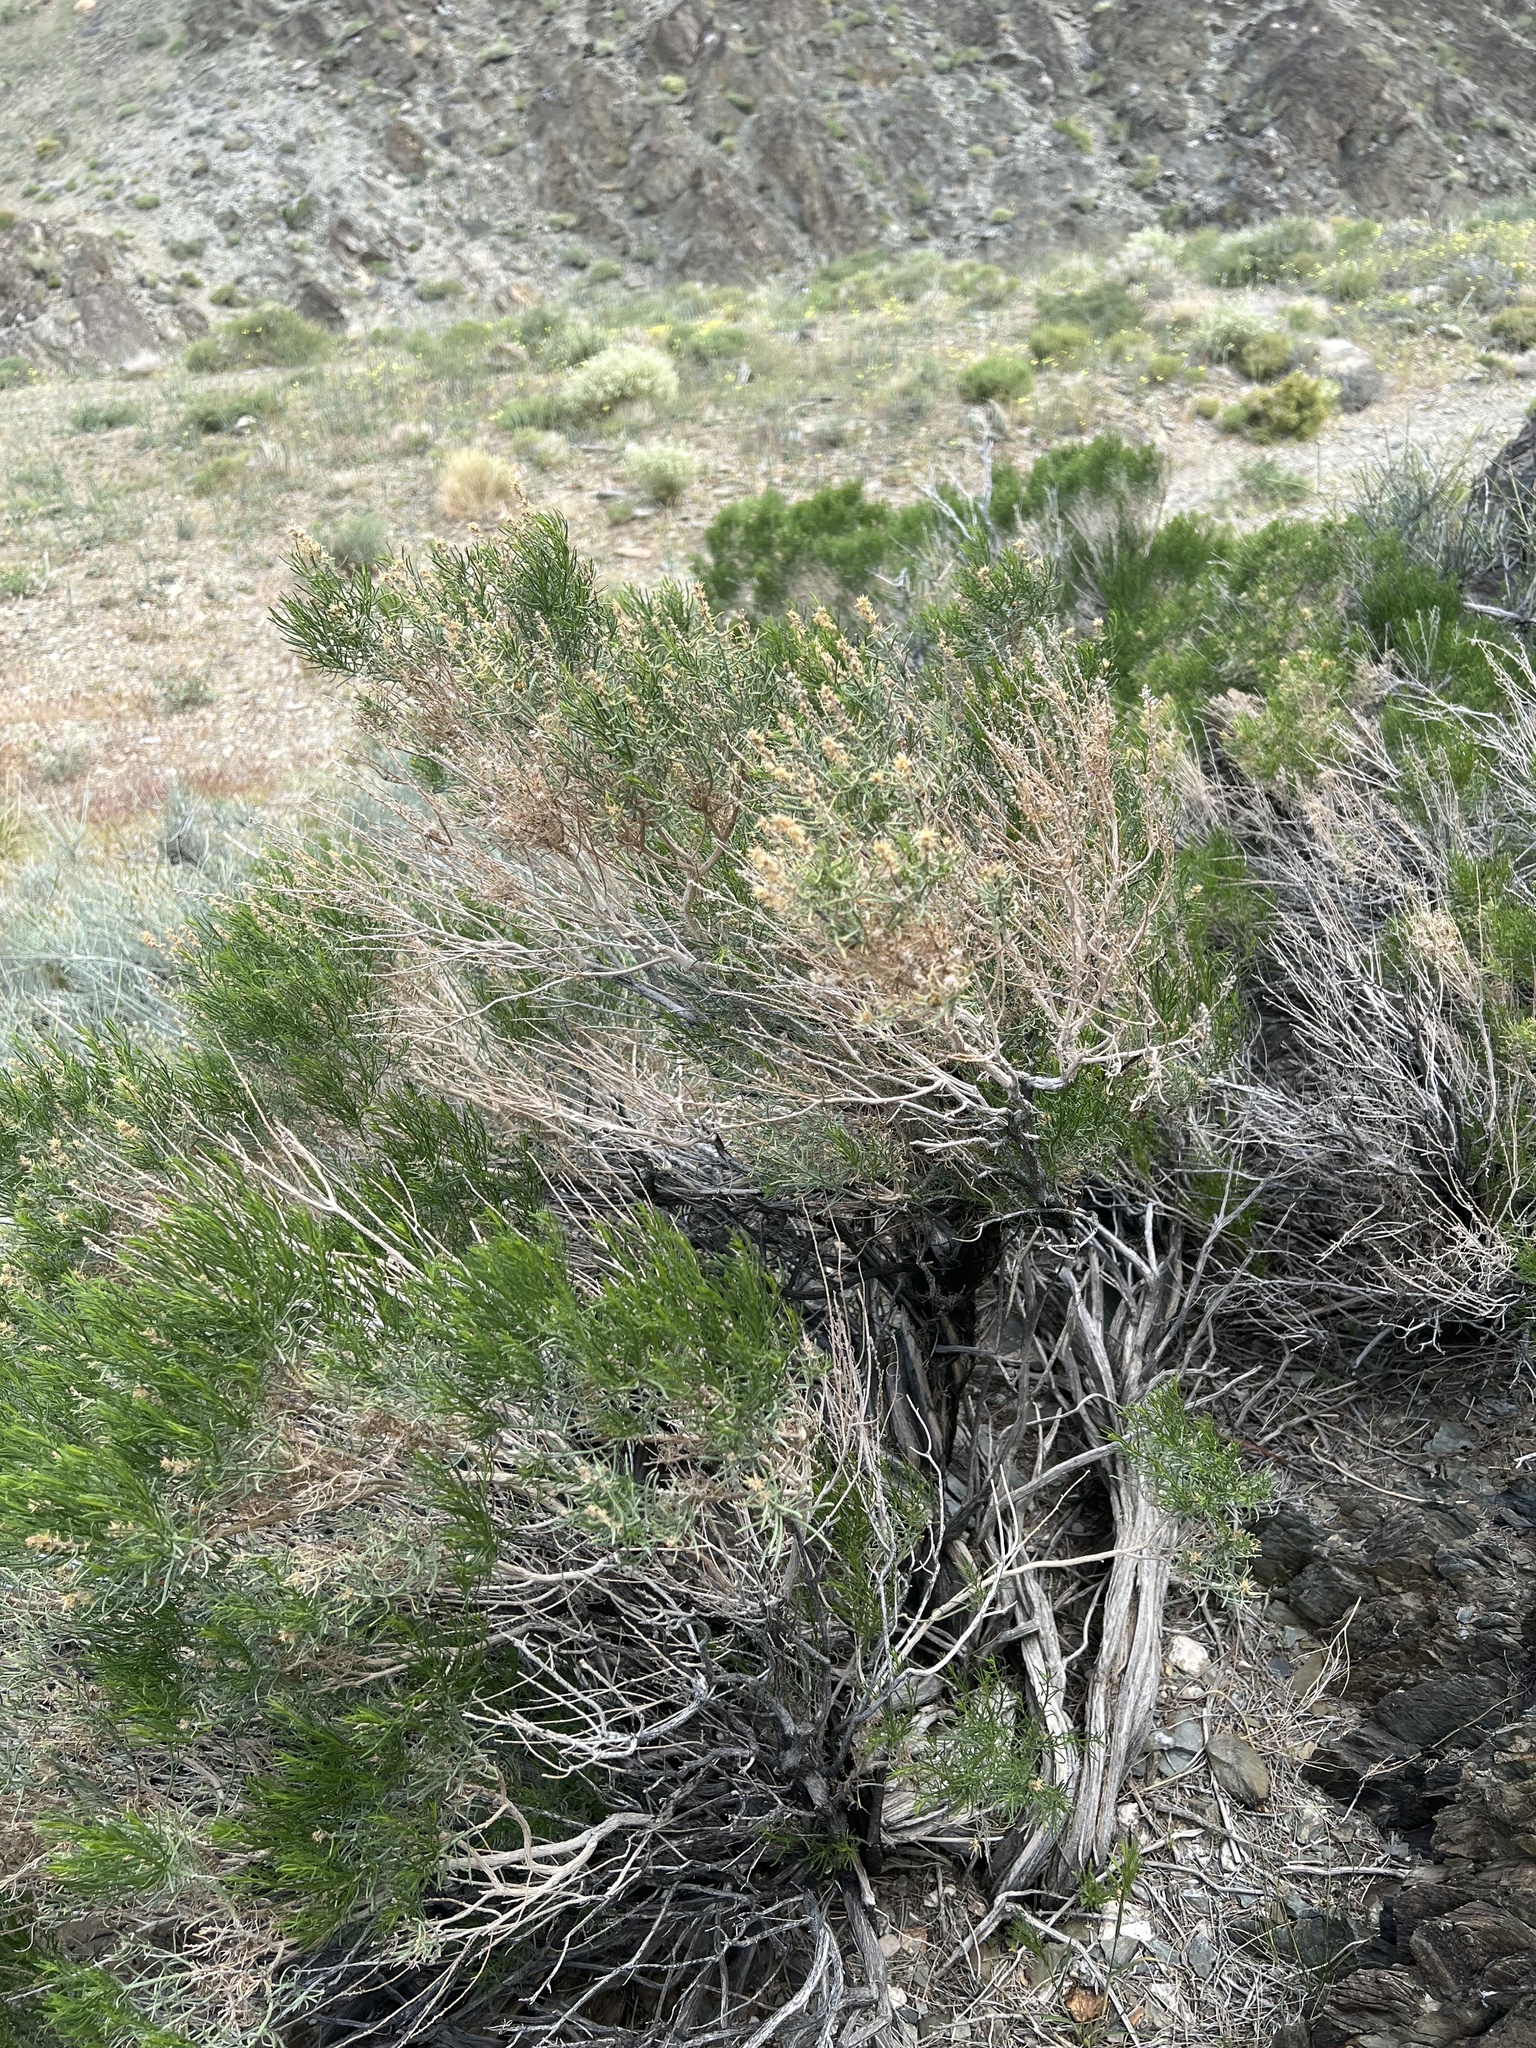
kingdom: Plantae
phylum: Tracheophyta
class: Magnoliopsida
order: Asterales
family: Asteraceae
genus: Ericameria
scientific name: Ericameria teretifolia
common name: Round-leaf rabbitbrush
